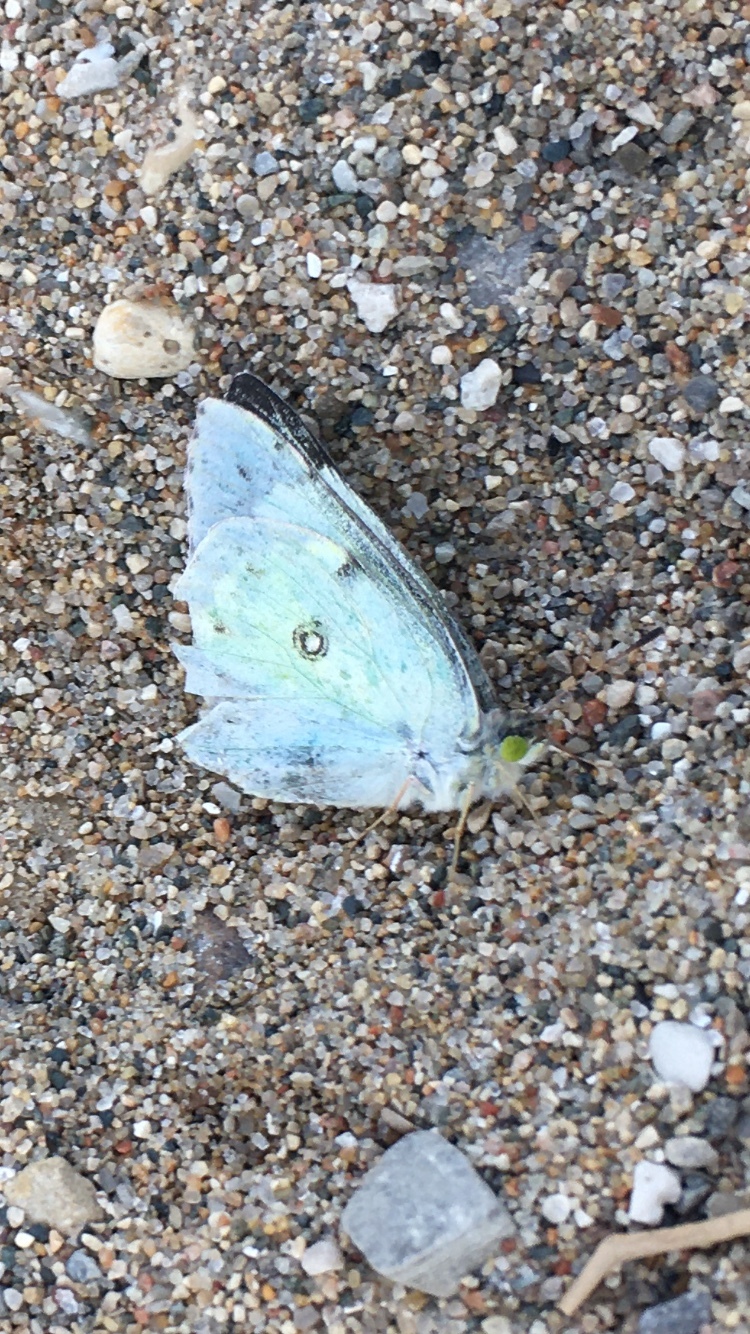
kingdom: Animalia
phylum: Arthropoda
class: Insecta
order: Lepidoptera
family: Pieridae
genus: Colias
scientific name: Colias philodice
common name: Clouded sulphur
